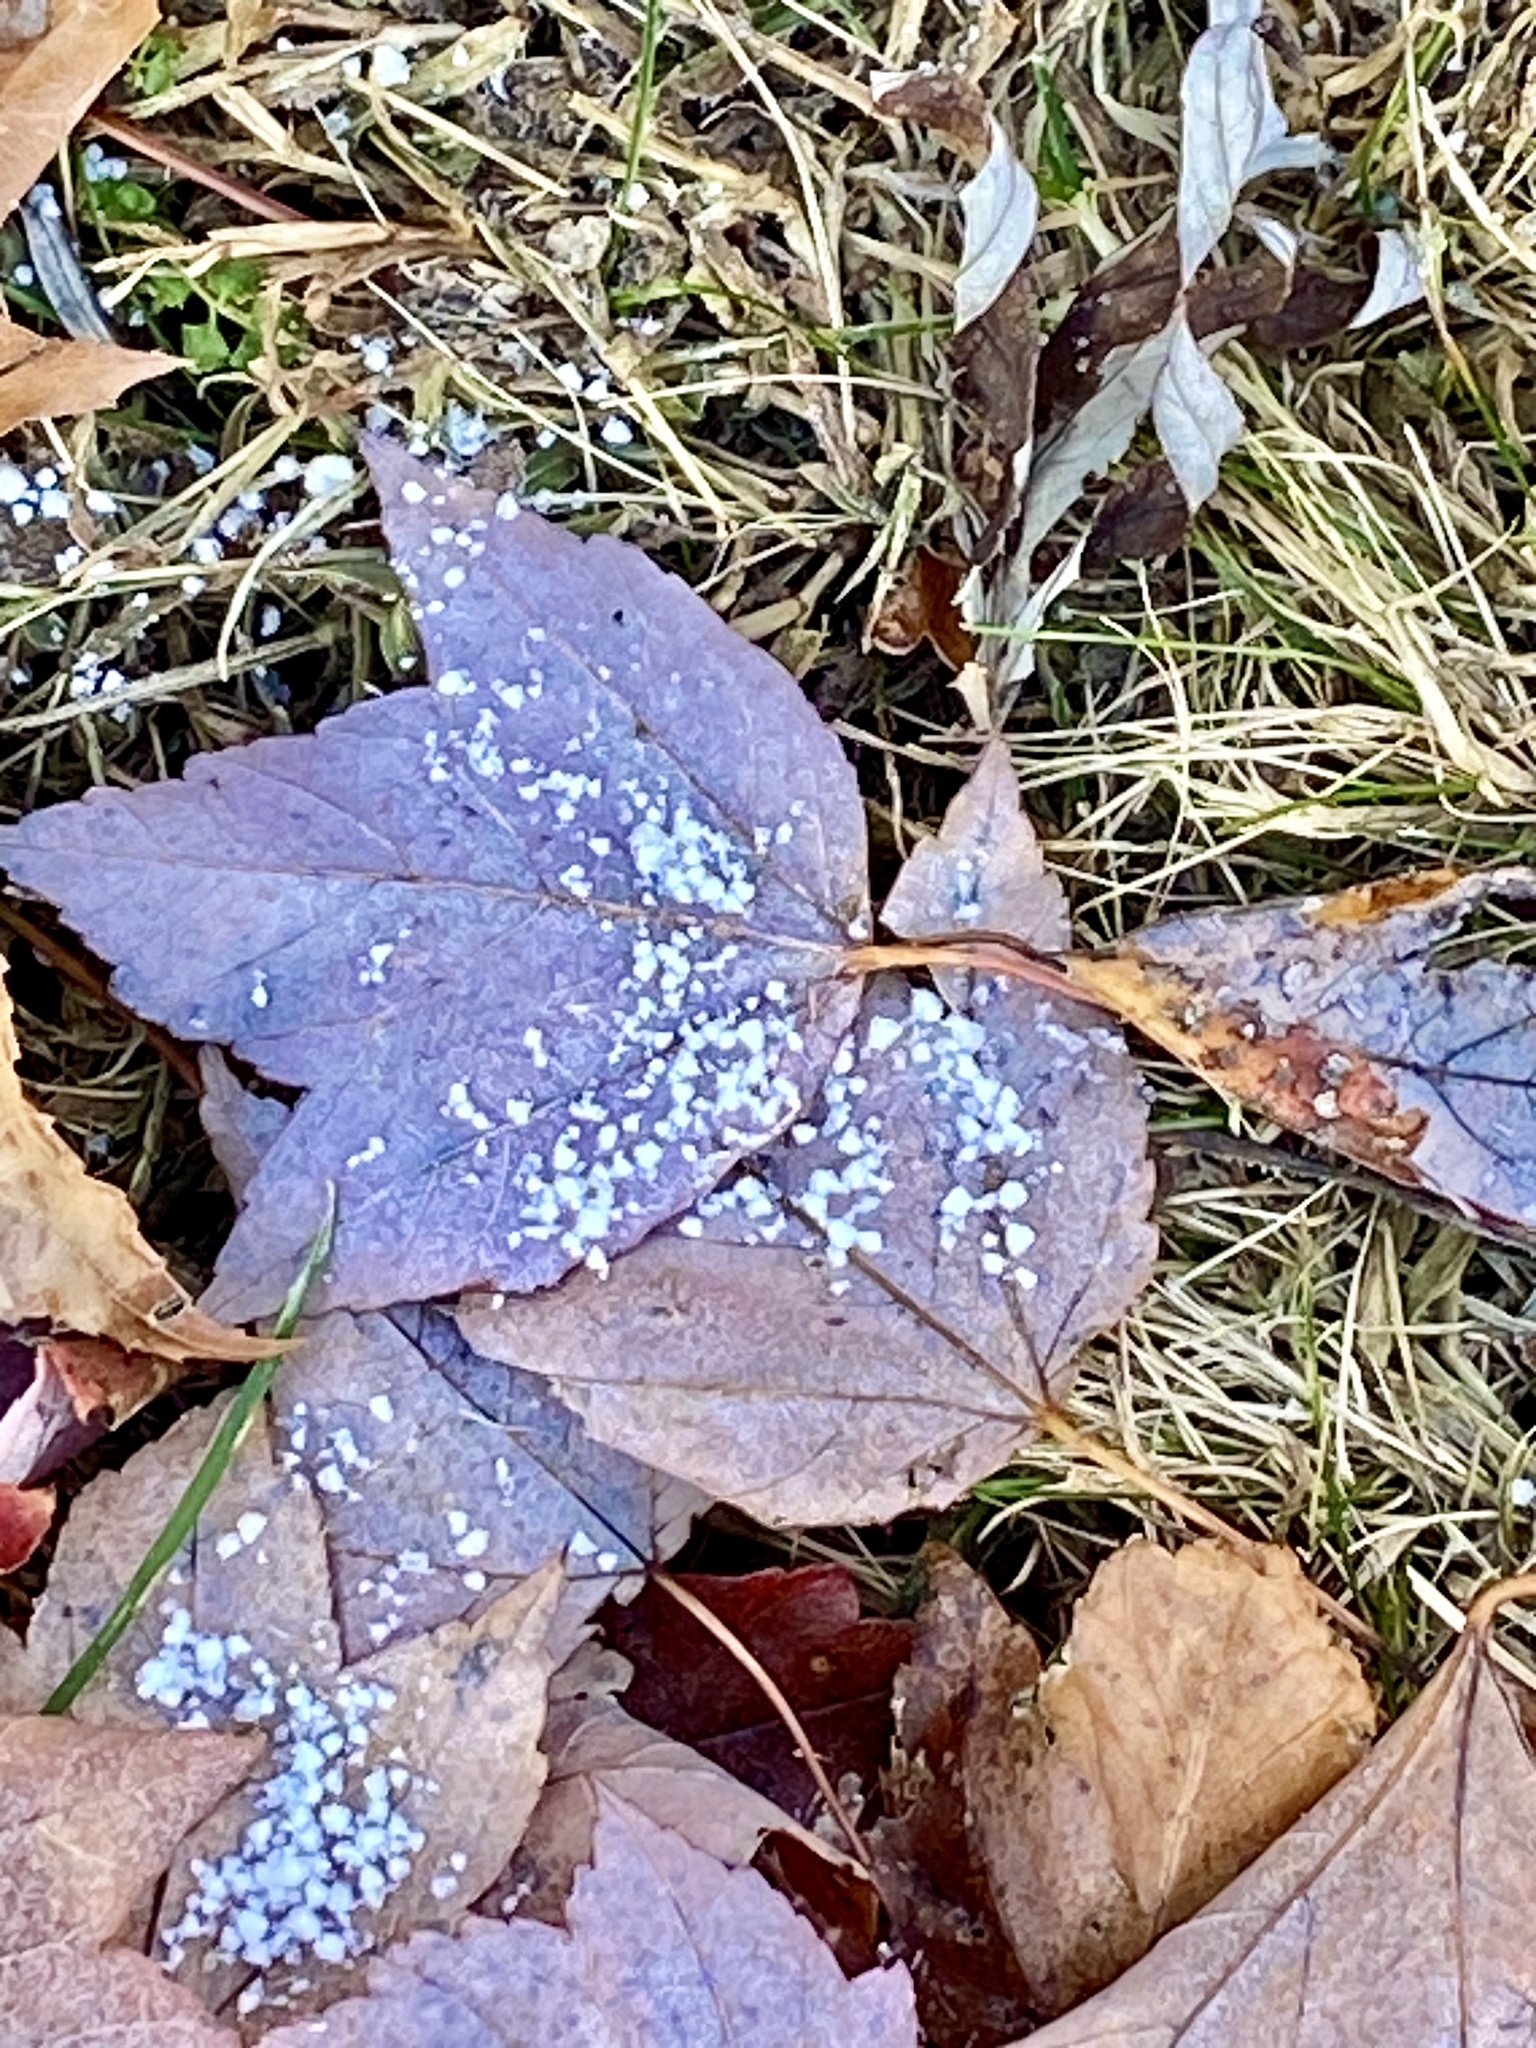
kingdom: Plantae
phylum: Tracheophyta
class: Magnoliopsida
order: Sapindales
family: Sapindaceae
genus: Acer
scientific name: Acer rubrum
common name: Red maple
